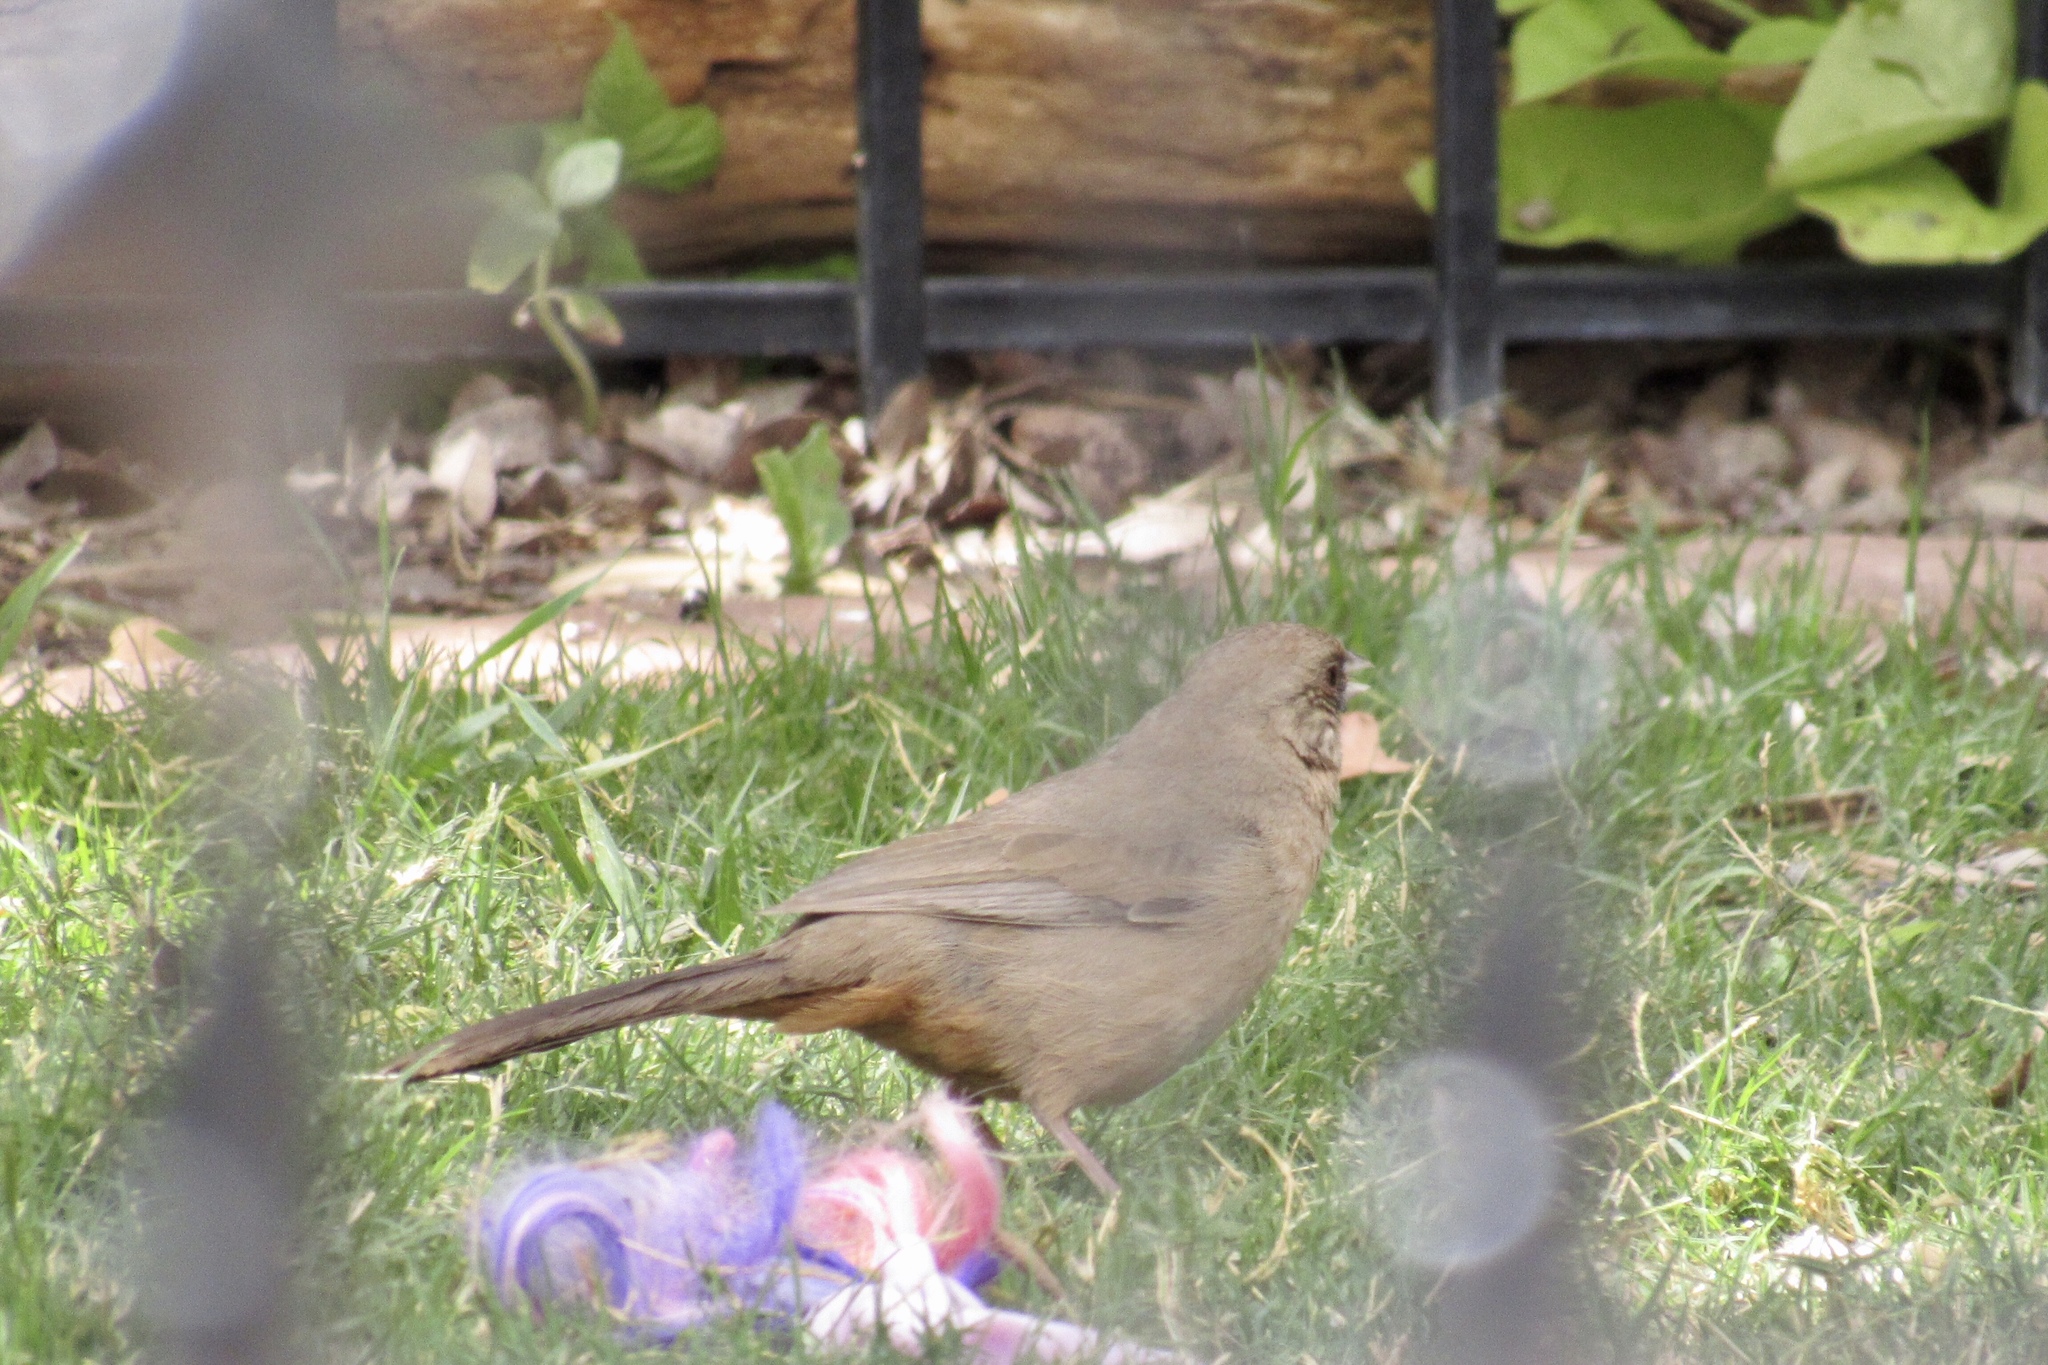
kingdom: Animalia
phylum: Chordata
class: Aves
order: Passeriformes
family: Passerellidae
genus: Melozone
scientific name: Melozone aberti
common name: Abert's towhee
